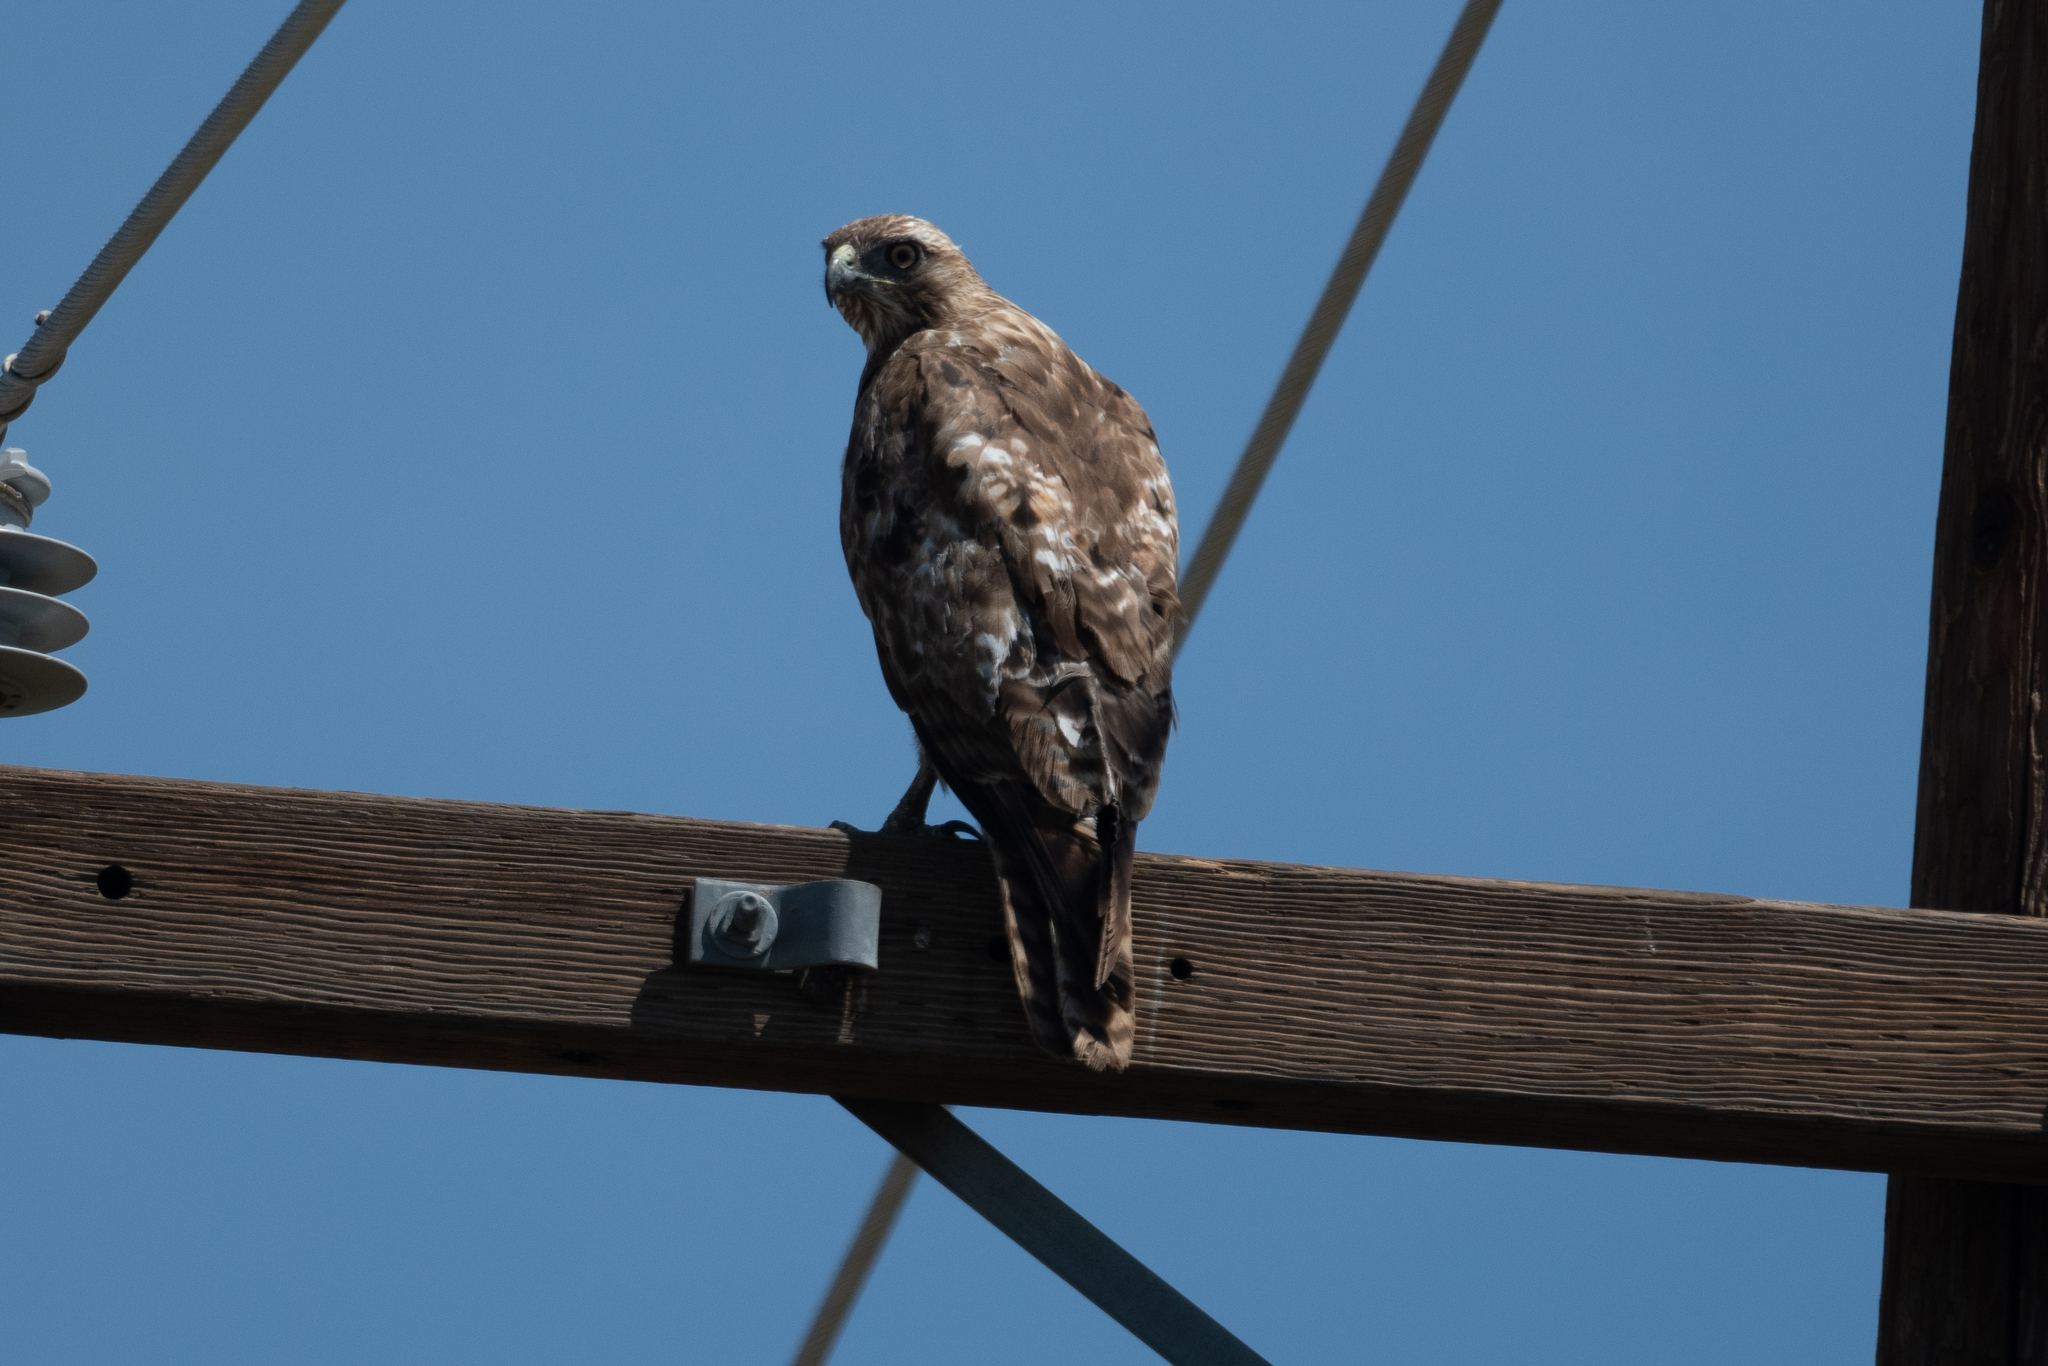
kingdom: Animalia
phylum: Chordata
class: Aves
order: Accipitriformes
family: Accipitridae
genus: Buteo
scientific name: Buteo jamaicensis
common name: Red-tailed hawk
